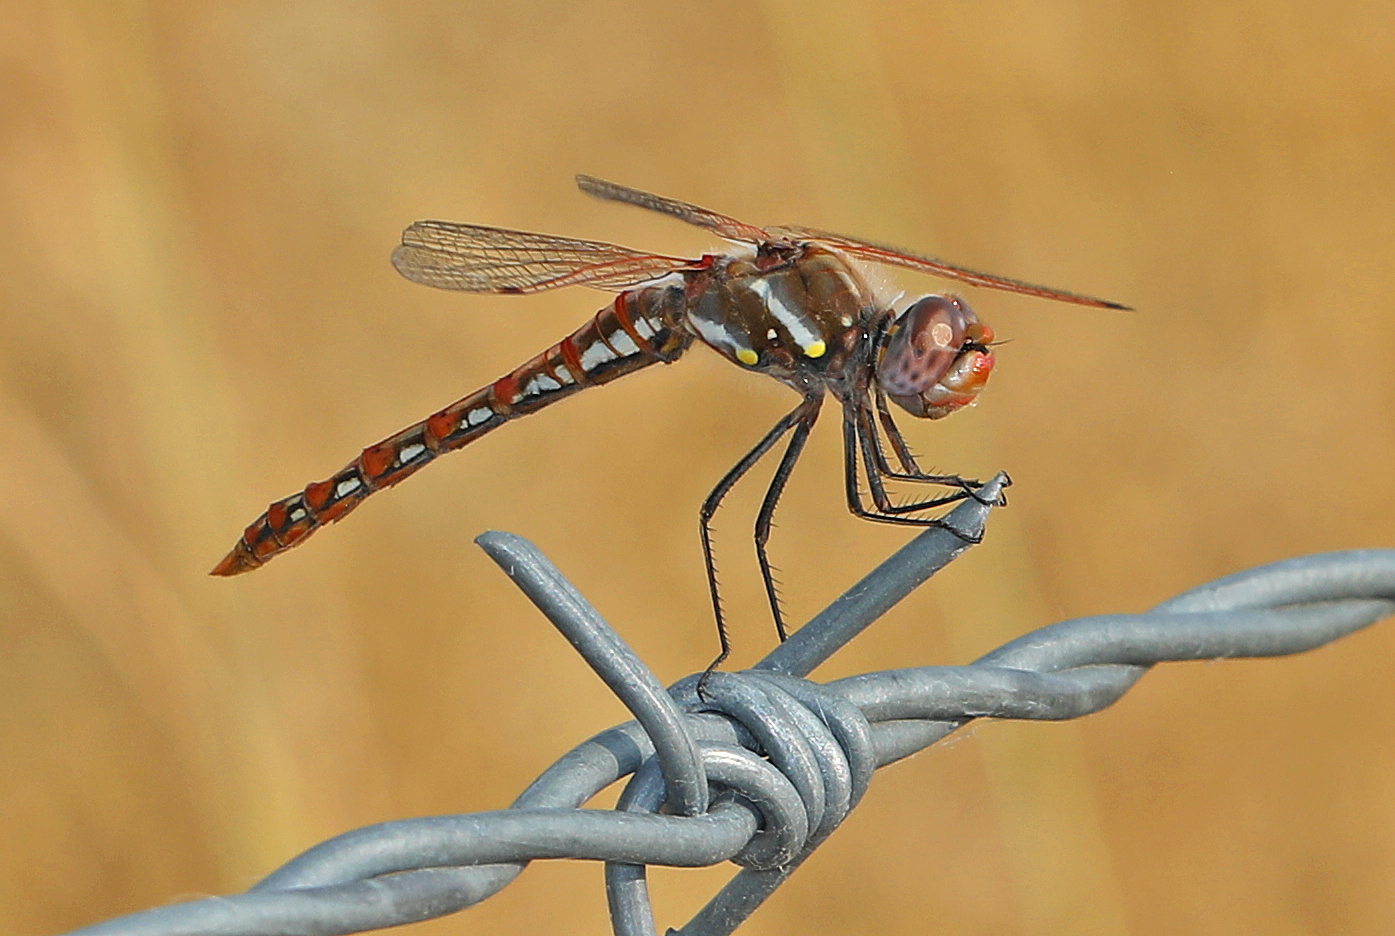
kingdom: Animalia
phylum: Arthropoda
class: Insecta
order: Odonata
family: Libellulidae
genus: Sympetrum
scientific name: Sympetrum corruptum
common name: Variegated meadowhawk
